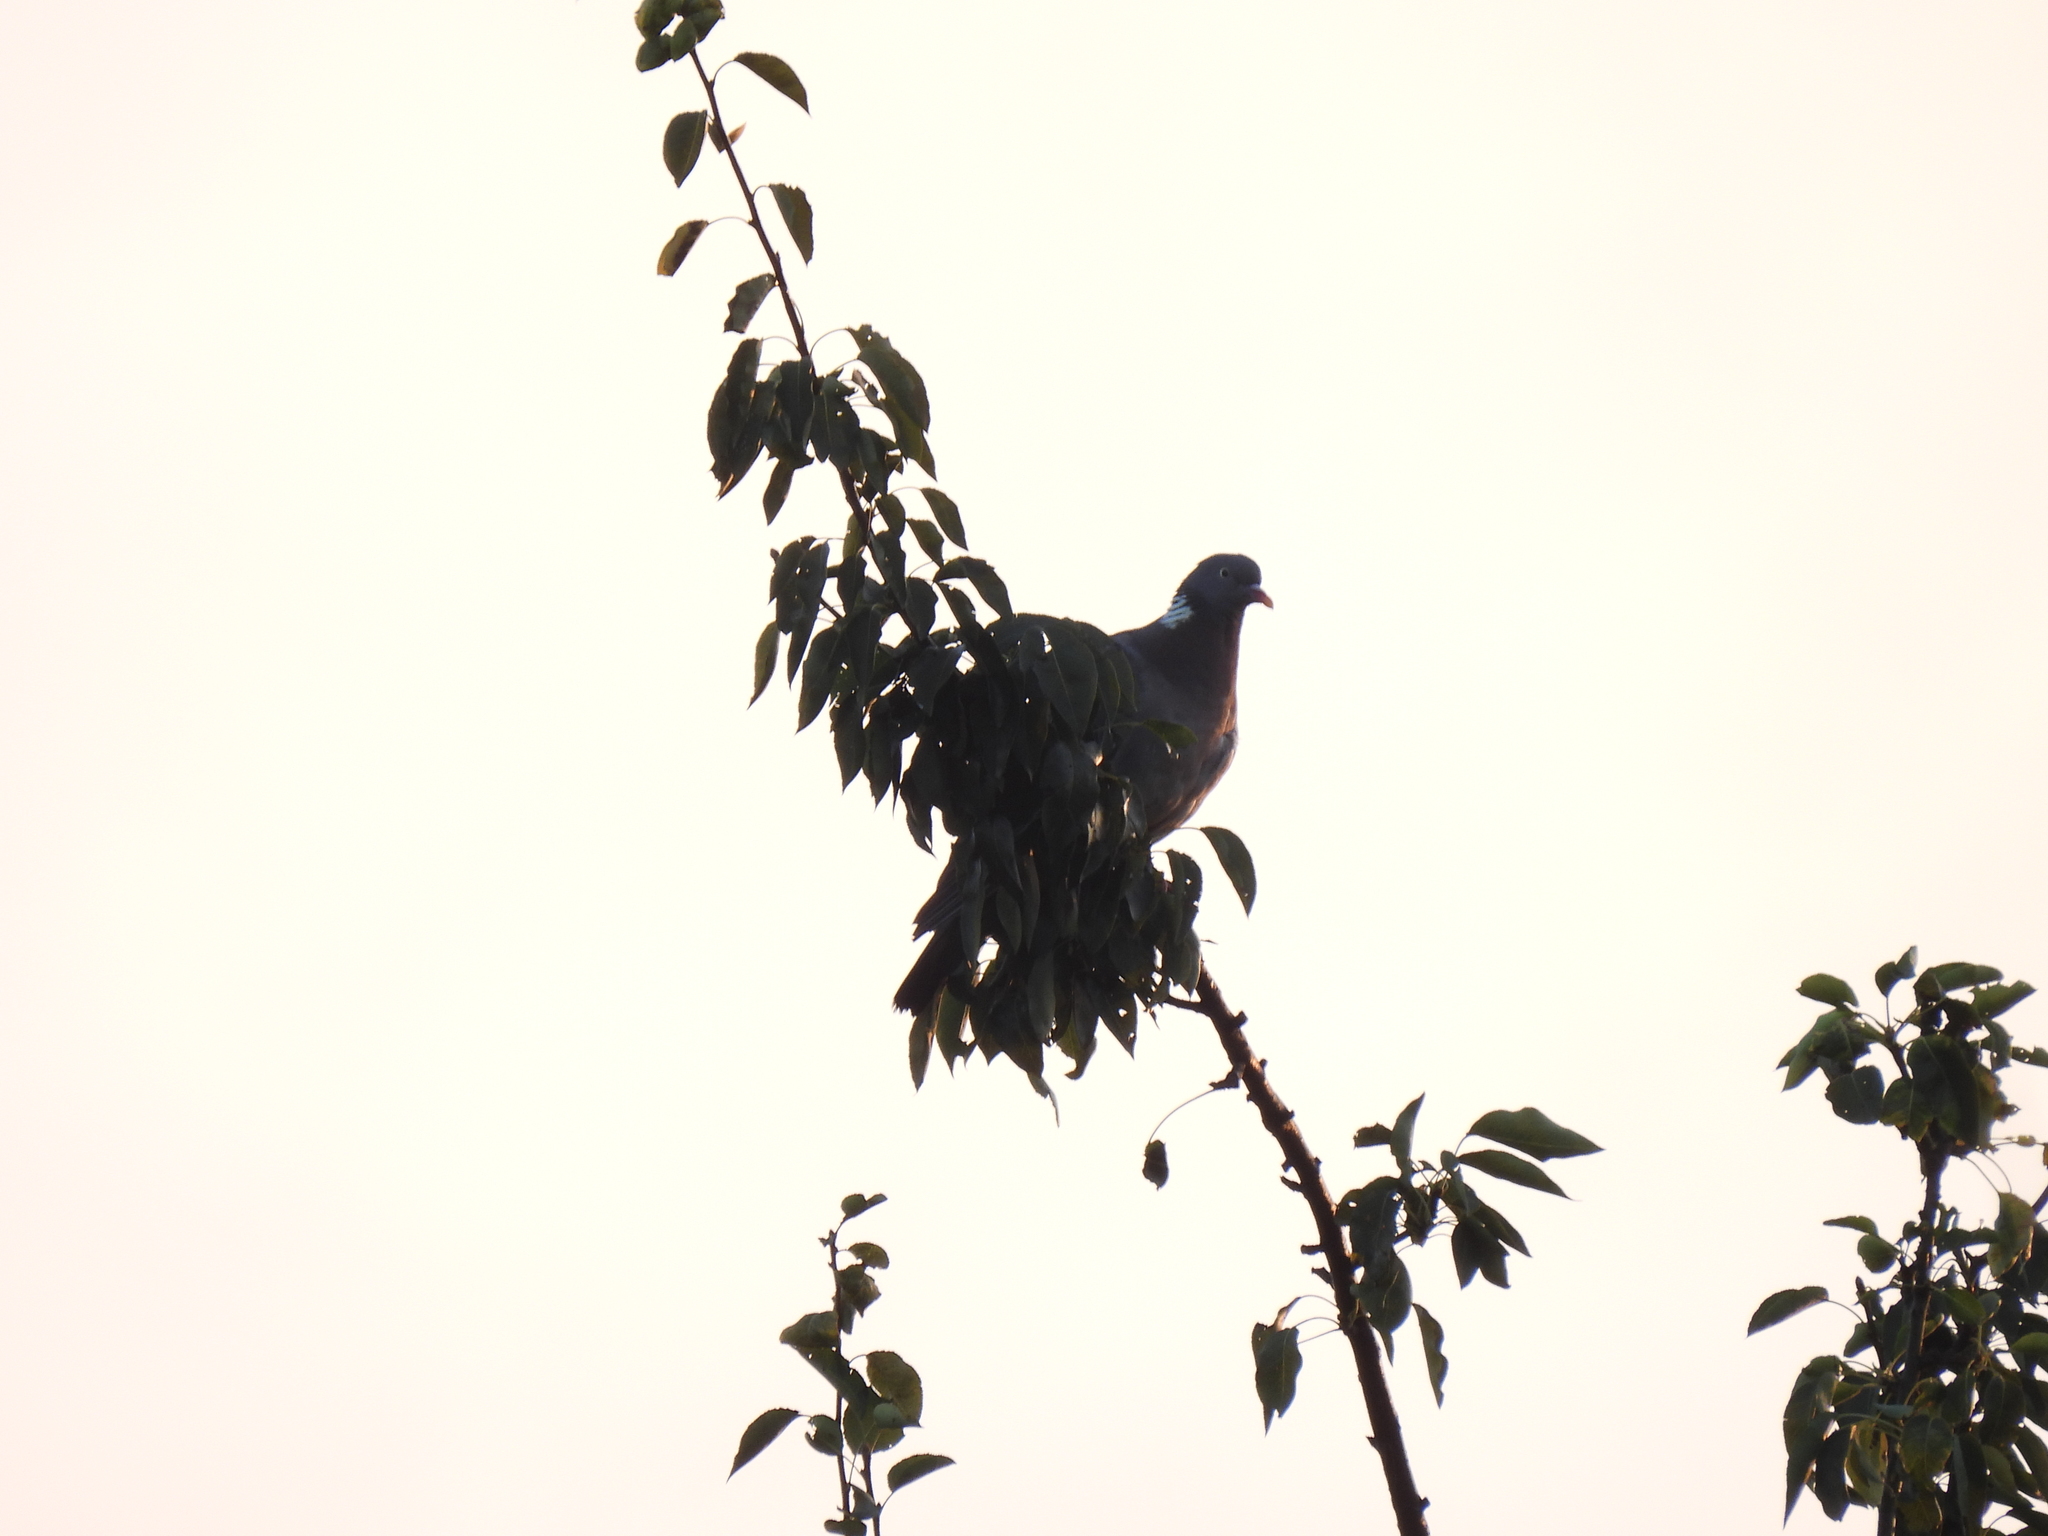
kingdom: Animalia
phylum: Chordata
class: Aves
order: Columbiformes
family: Columbidae
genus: Columba
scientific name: Columba palumbus
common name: Common wood pigeon
